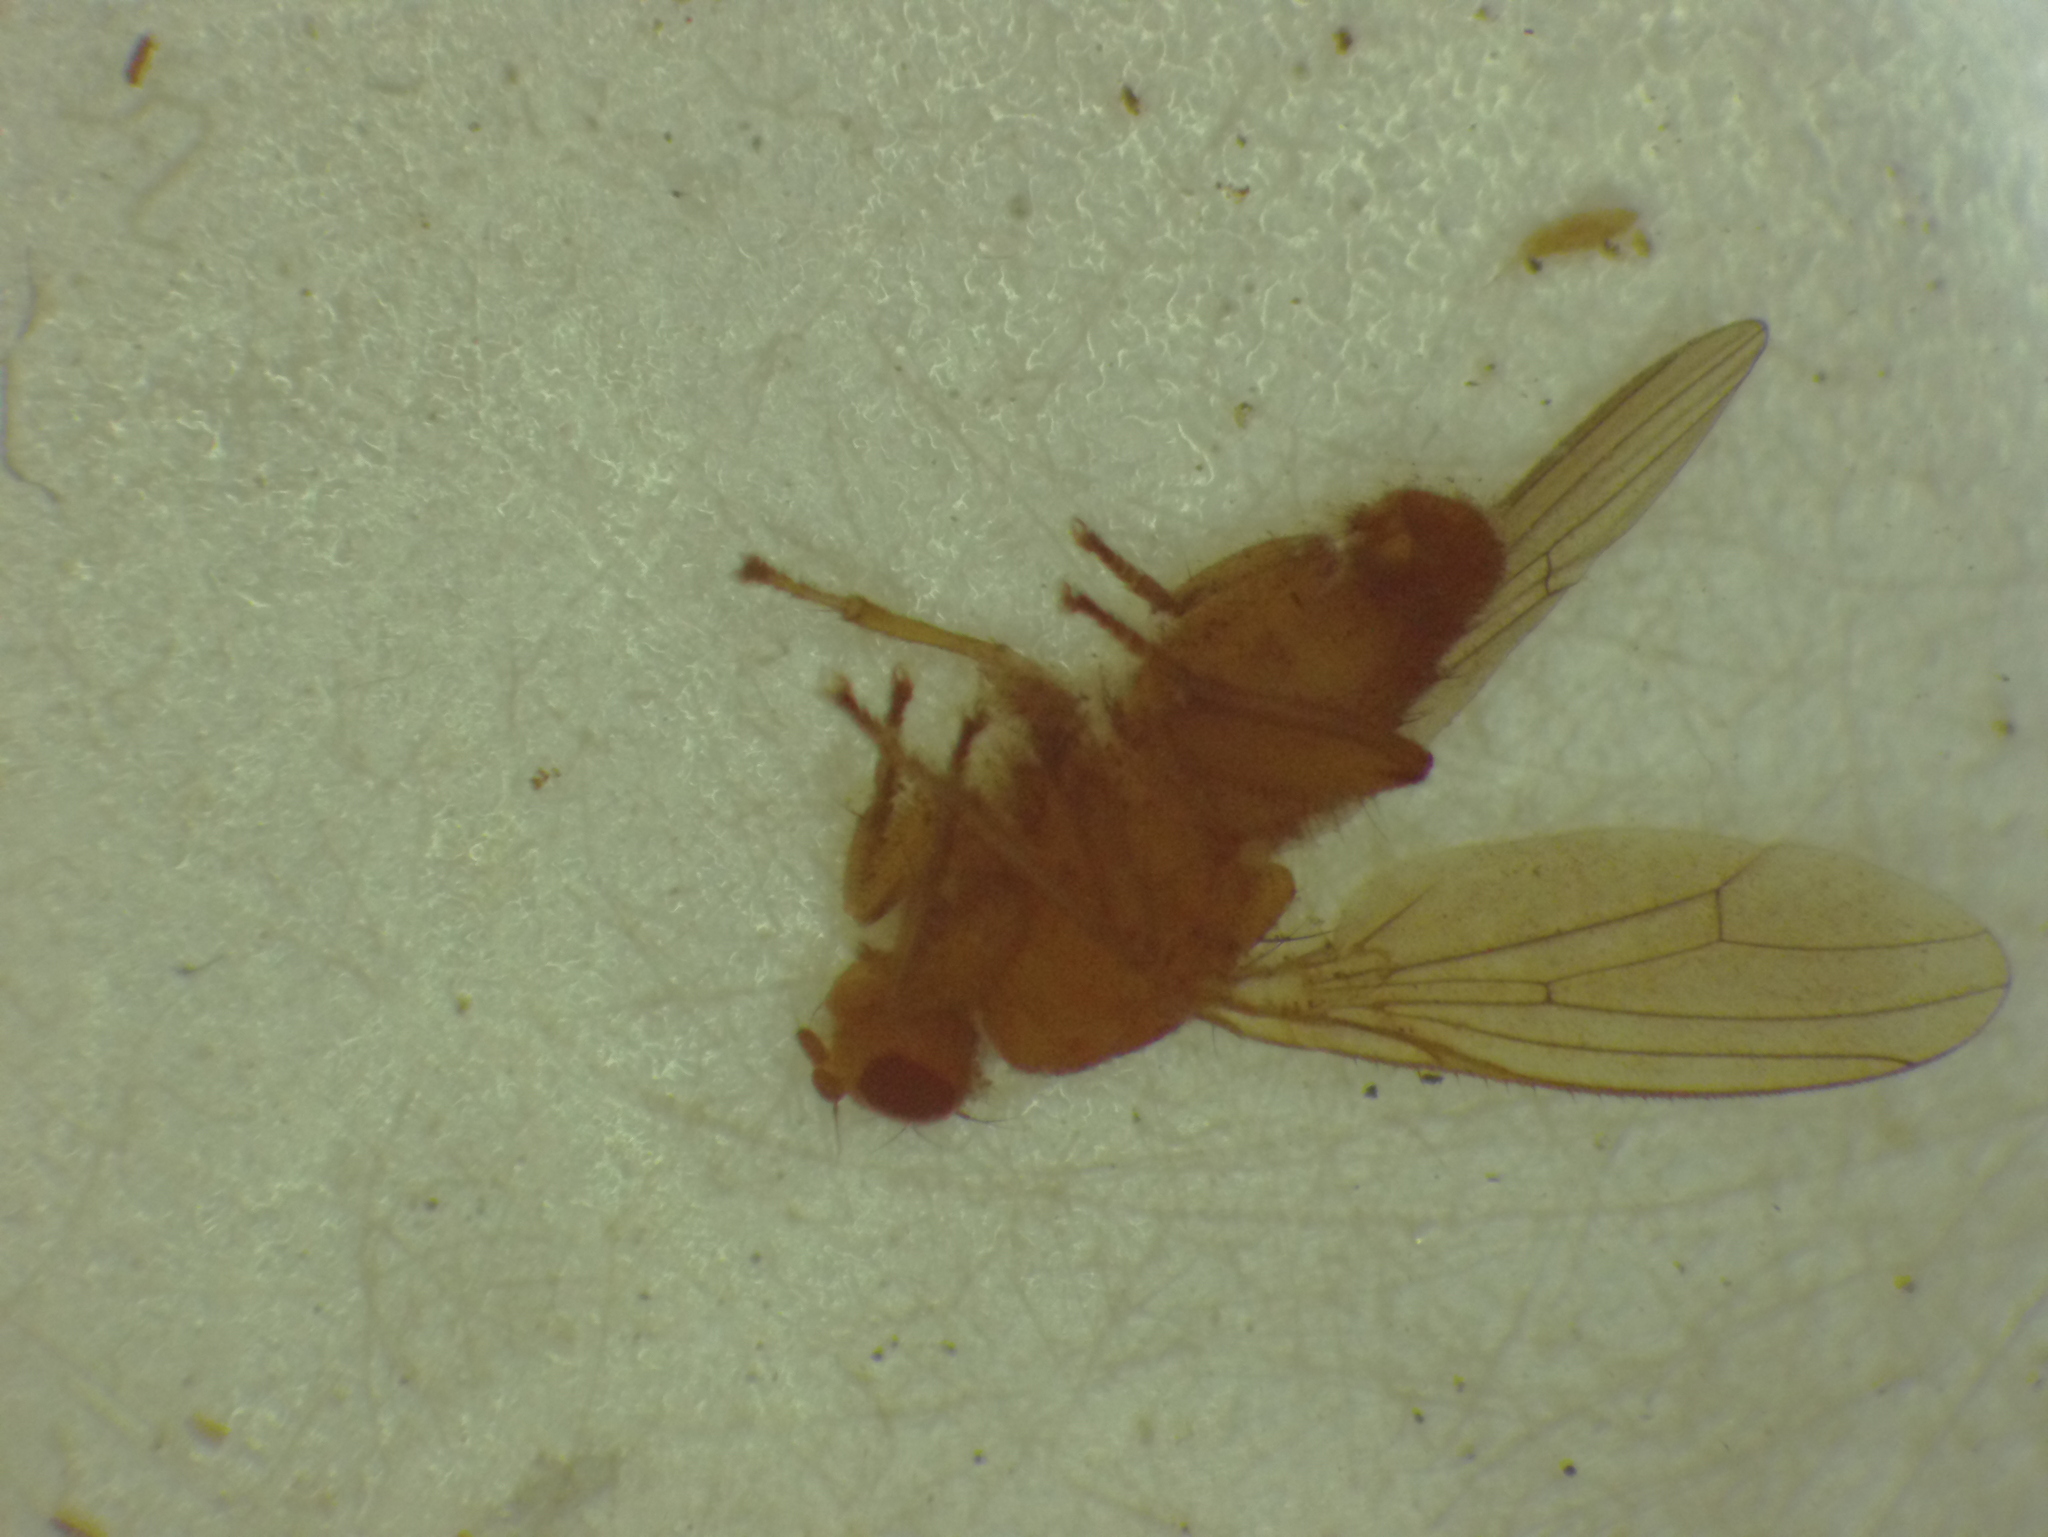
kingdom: Animalia
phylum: Arthropoda
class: Insecta
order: Diptera
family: Heleomyzidae
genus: Suillia
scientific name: Suillia convergens
